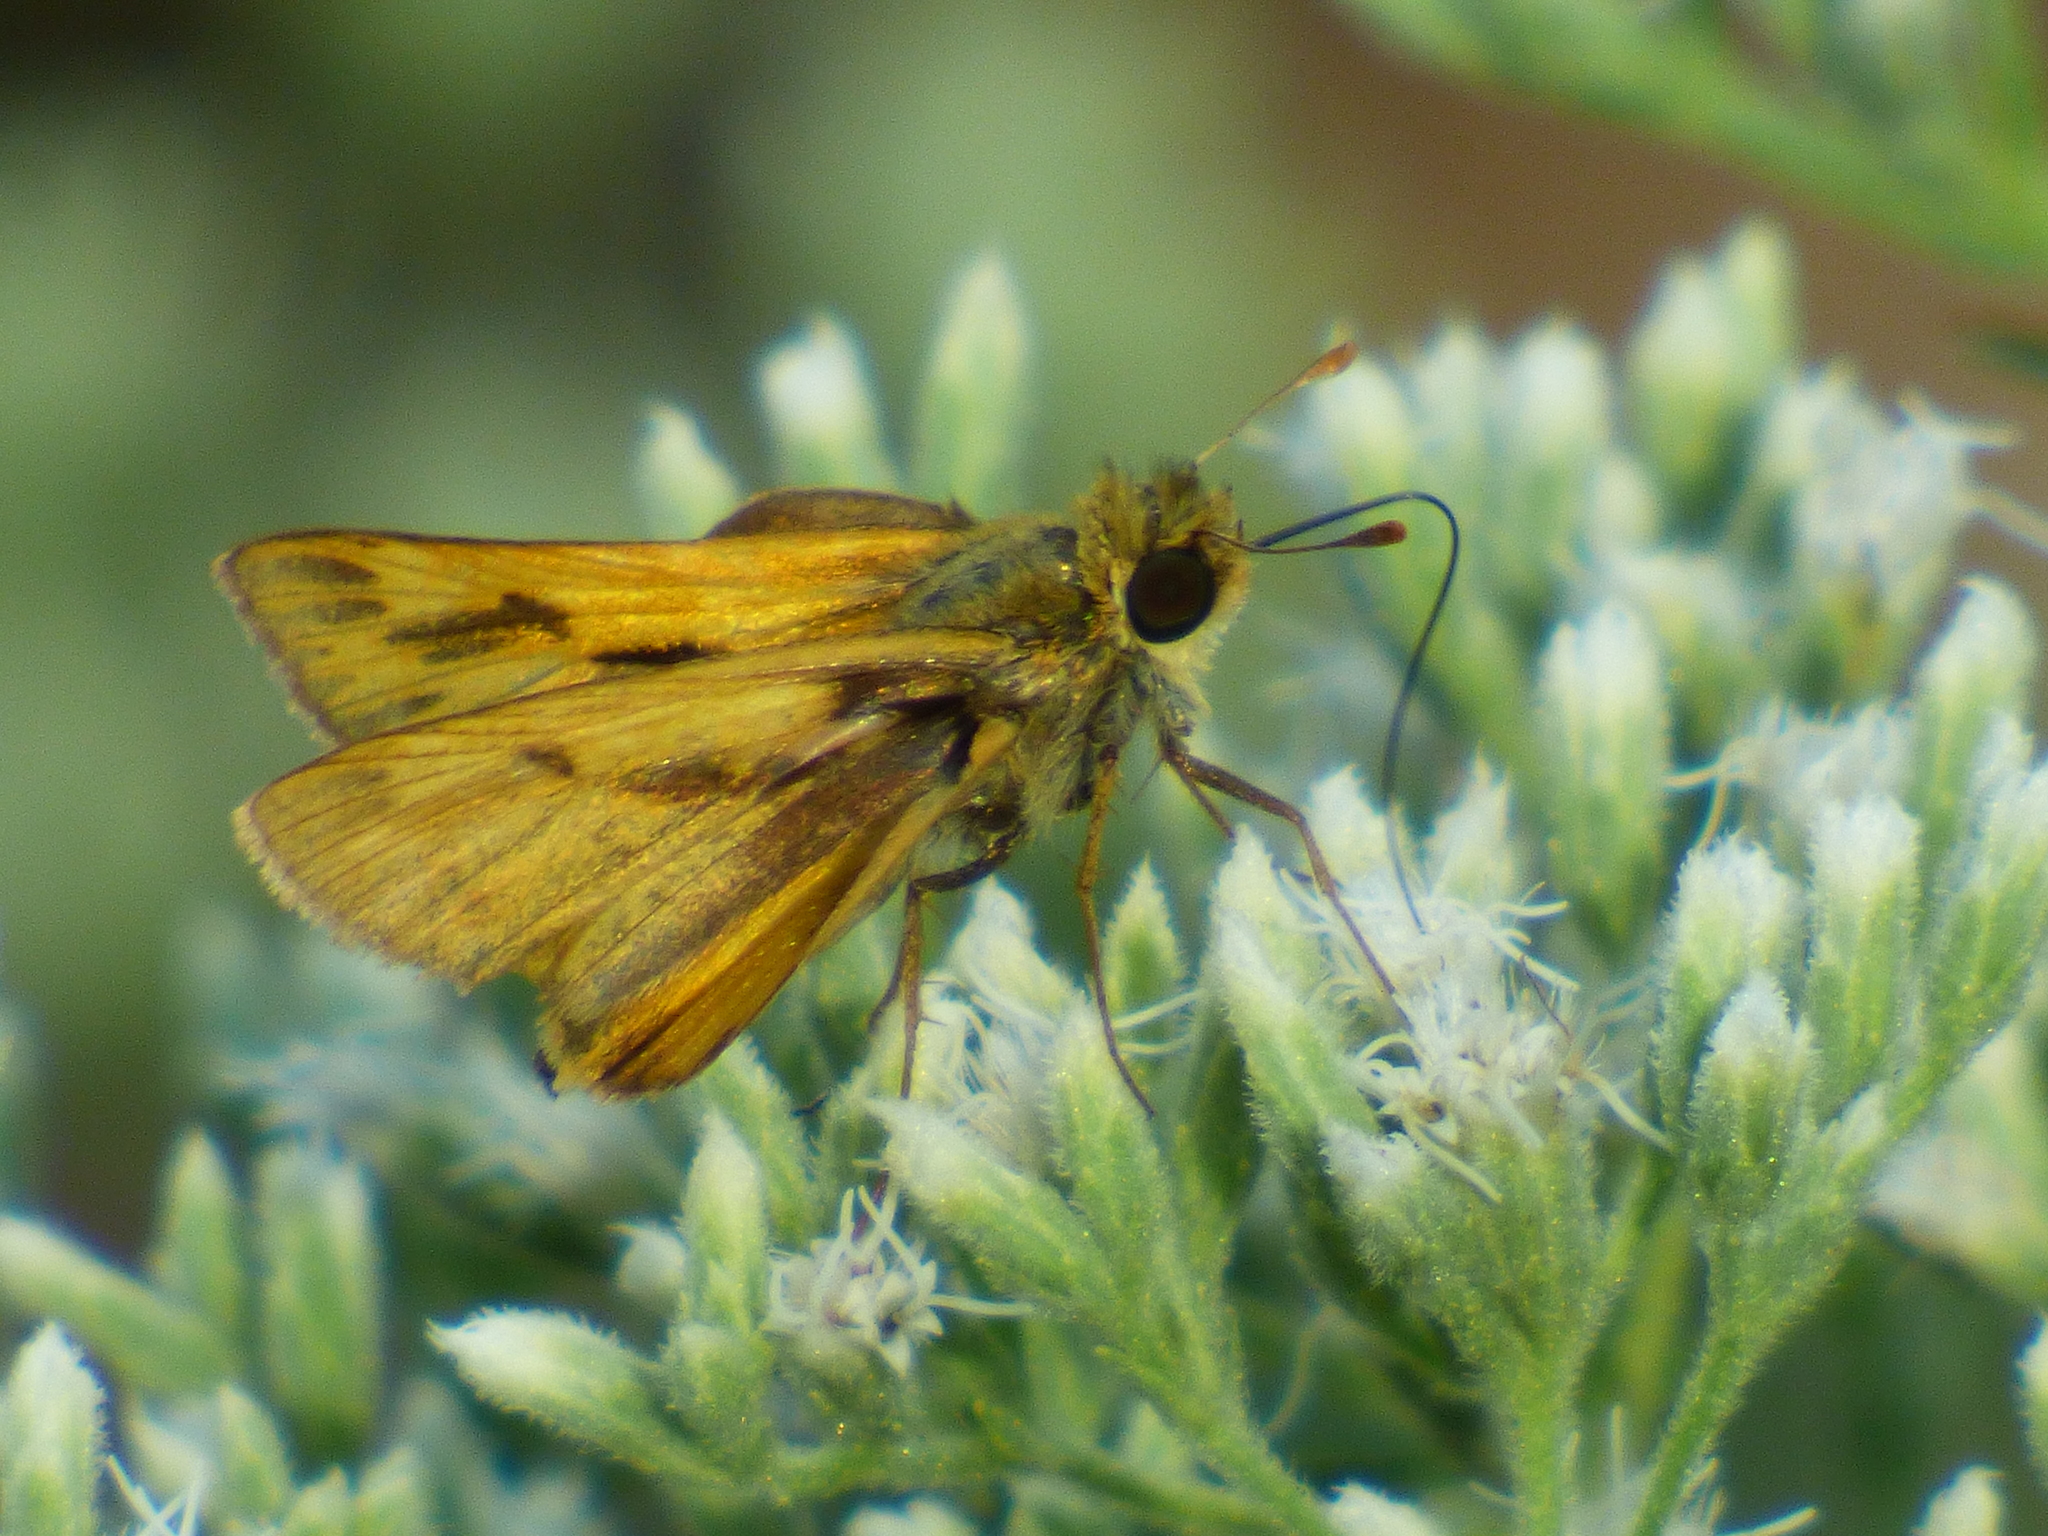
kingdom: Animalia
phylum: Arthropoda
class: Insecta
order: Lepidoptera
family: Hesperiidae
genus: Hylephila
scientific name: Hylephila phyleus
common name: Fiery skipper
